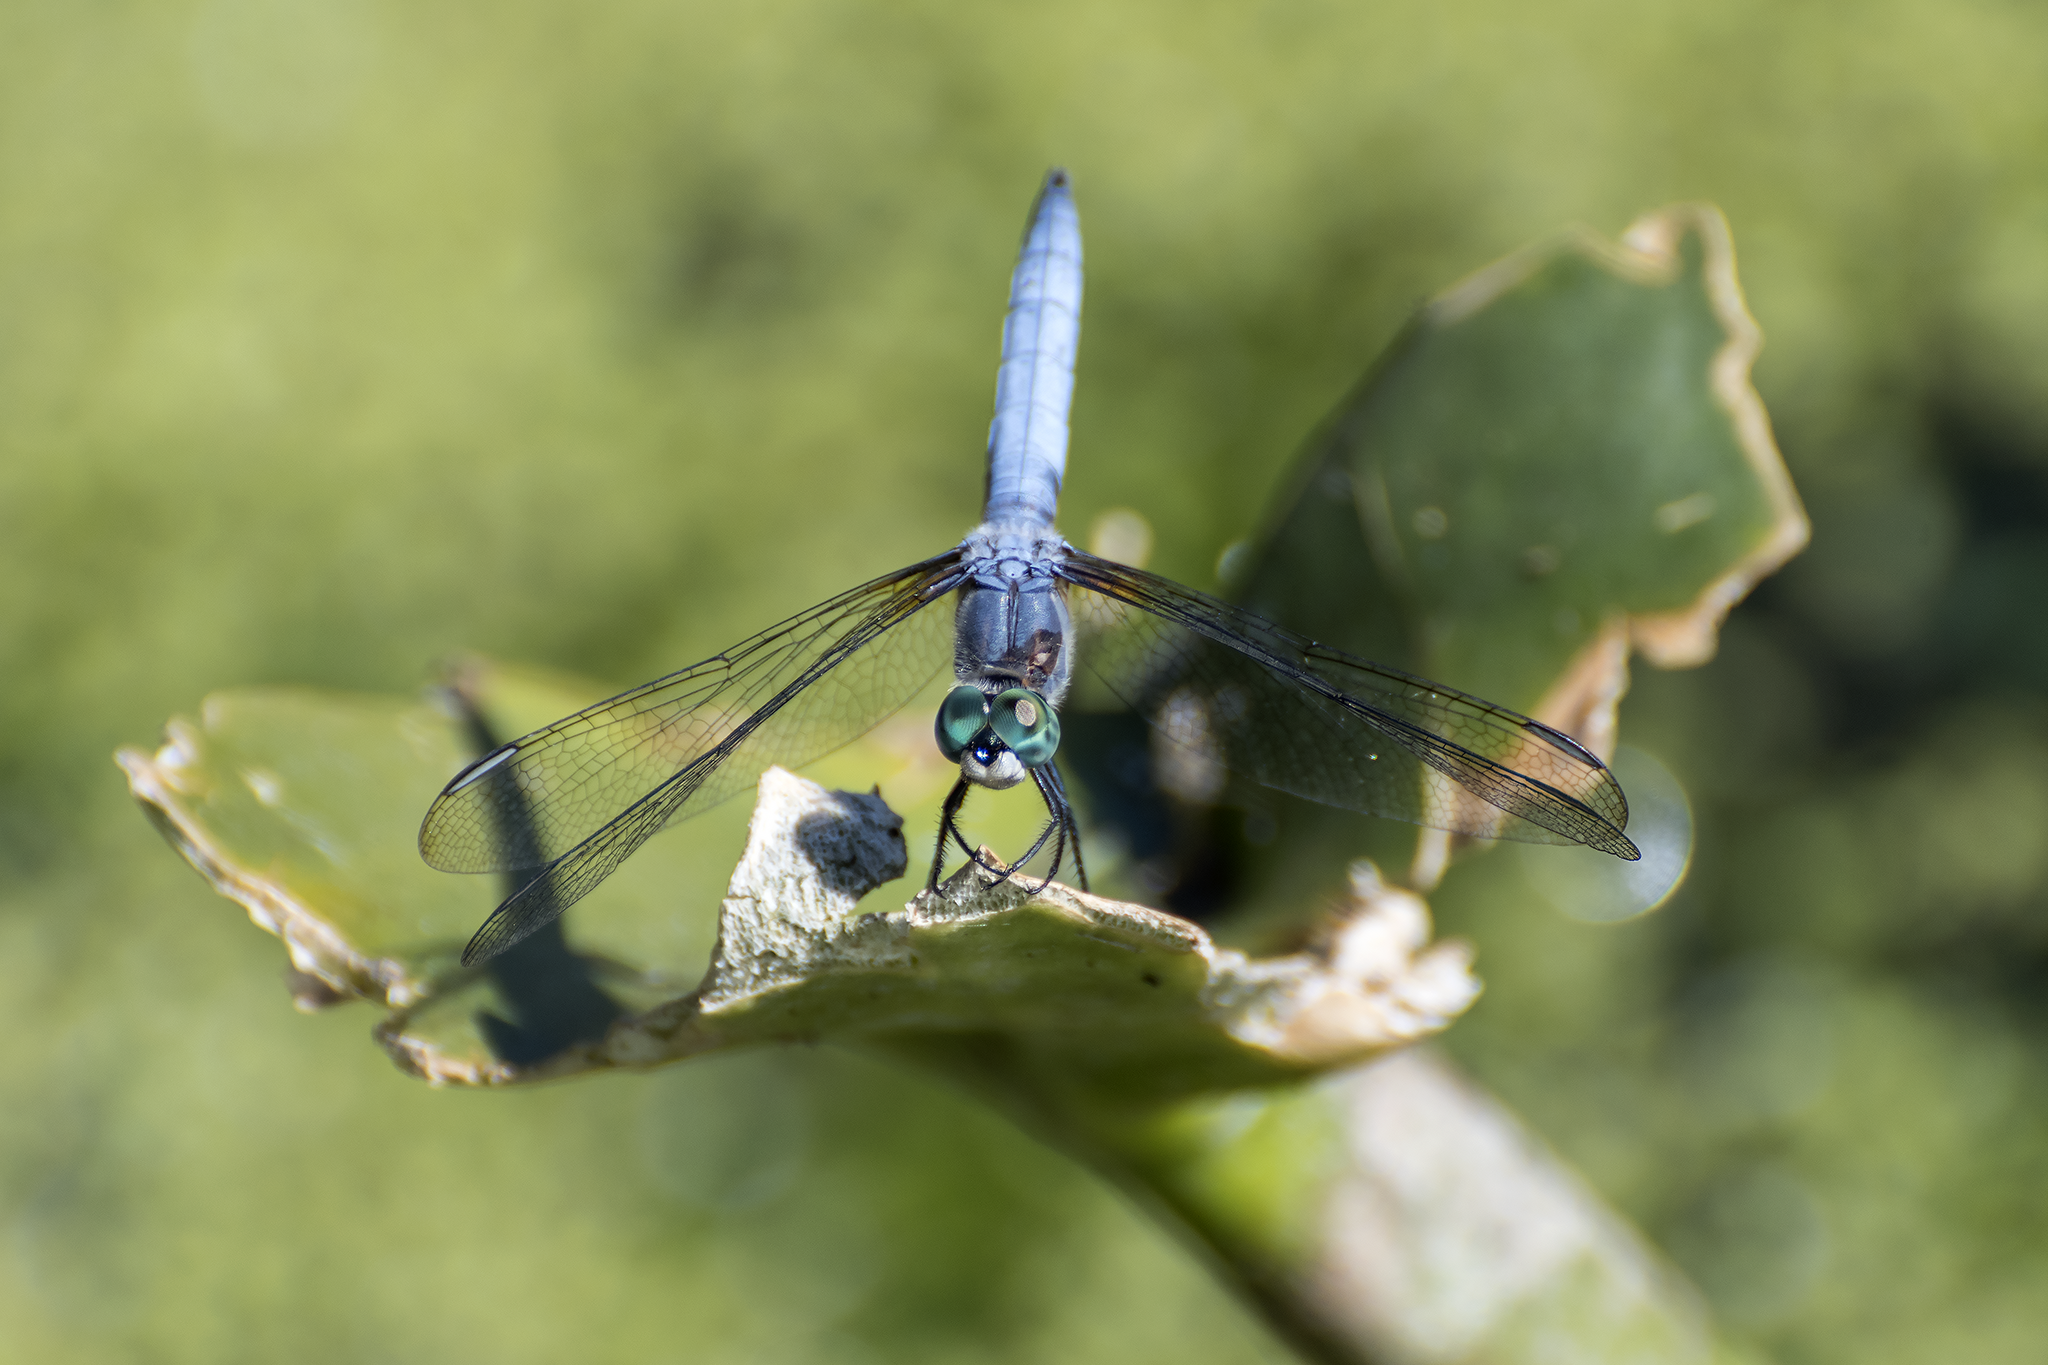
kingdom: Animalia
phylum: Arthropoda
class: Insecta
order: Odonata
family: Libellulidae
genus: Pachydiplax
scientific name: Pachydiplax longipennis
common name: Blue dasher
